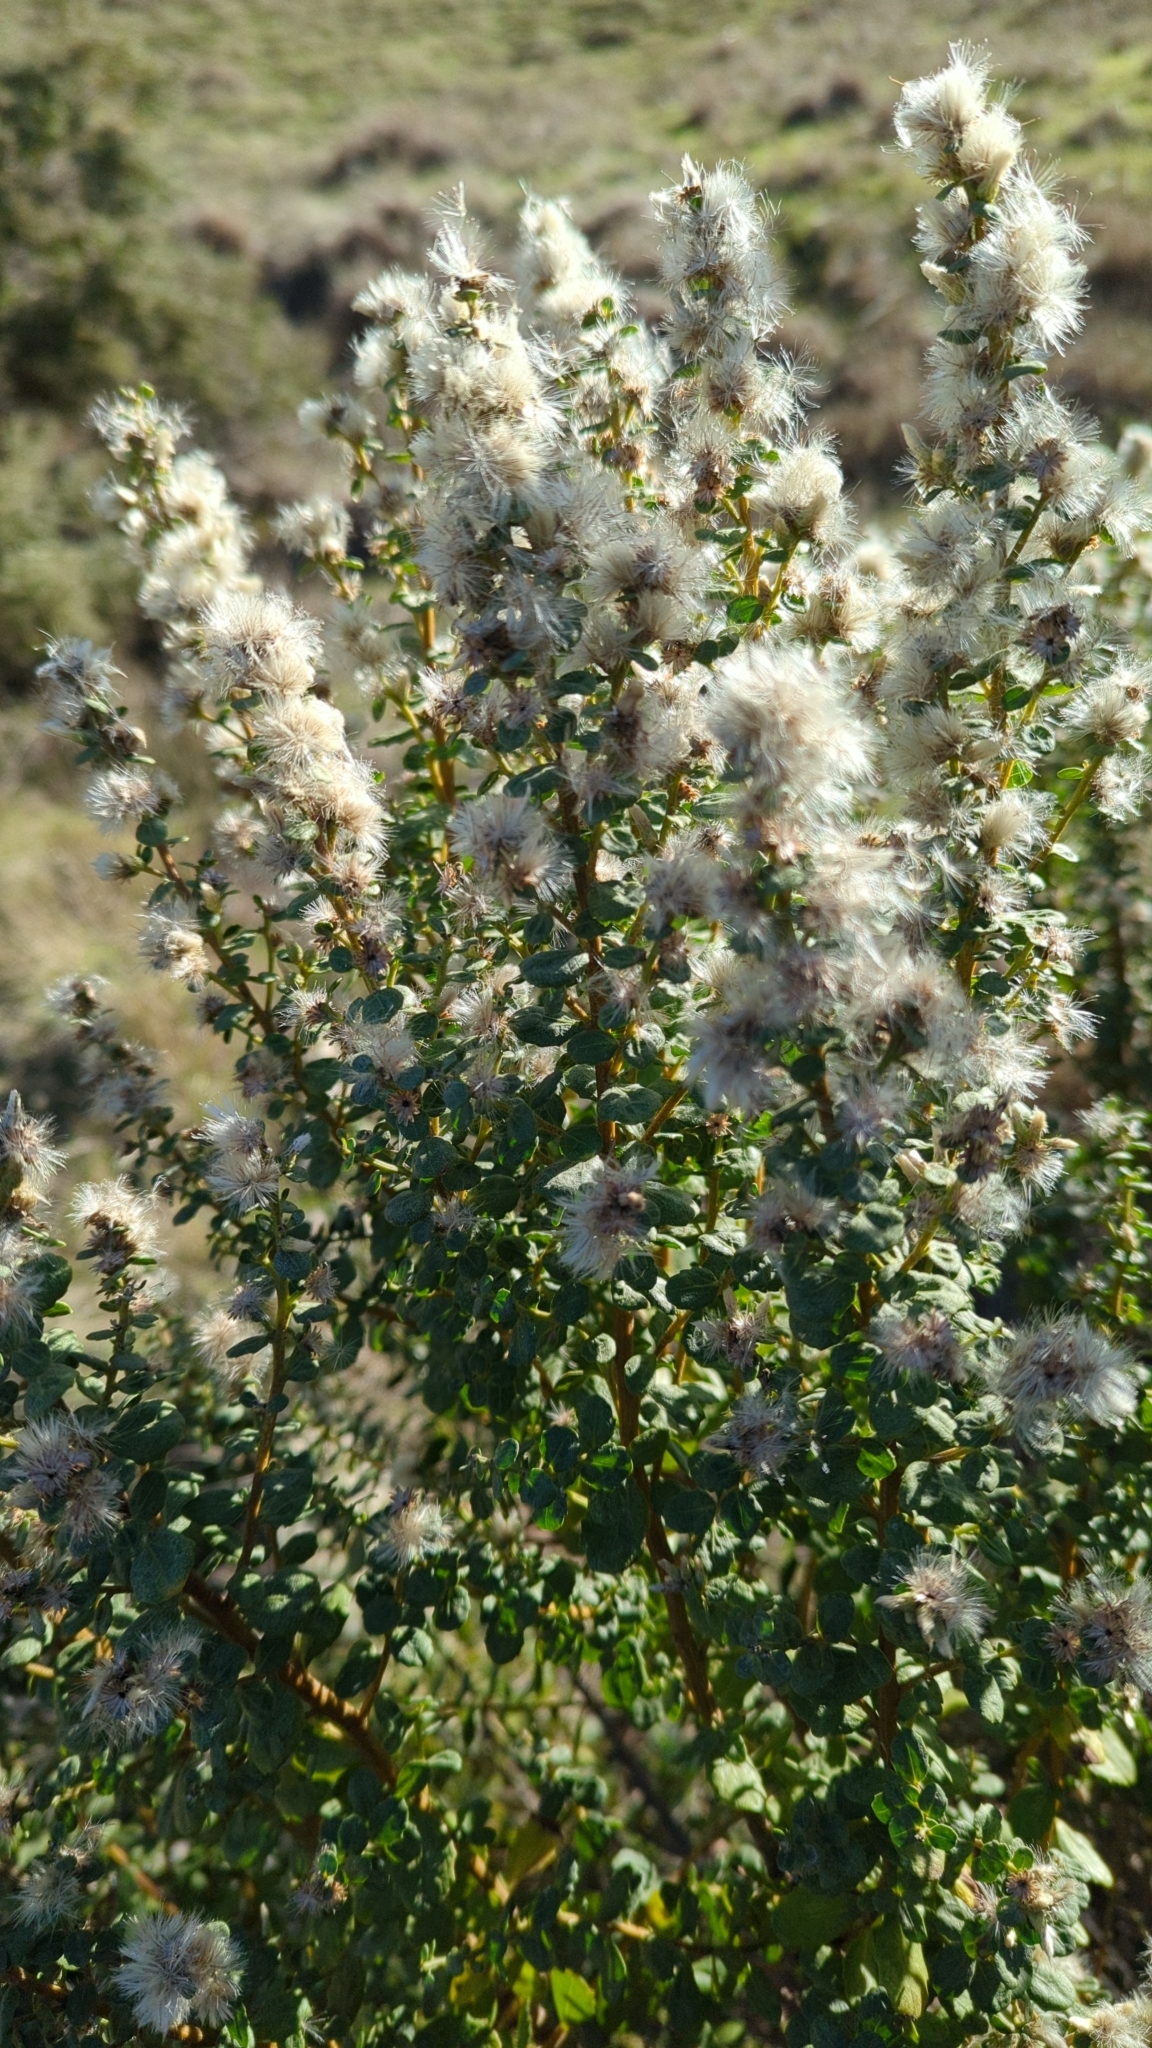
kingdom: Plantae
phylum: Tracheophyta
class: Magnoliopsida
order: Asterales
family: Asteraceae
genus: Baccharis
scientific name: Baccharis pilularis
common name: Coyotebrush
